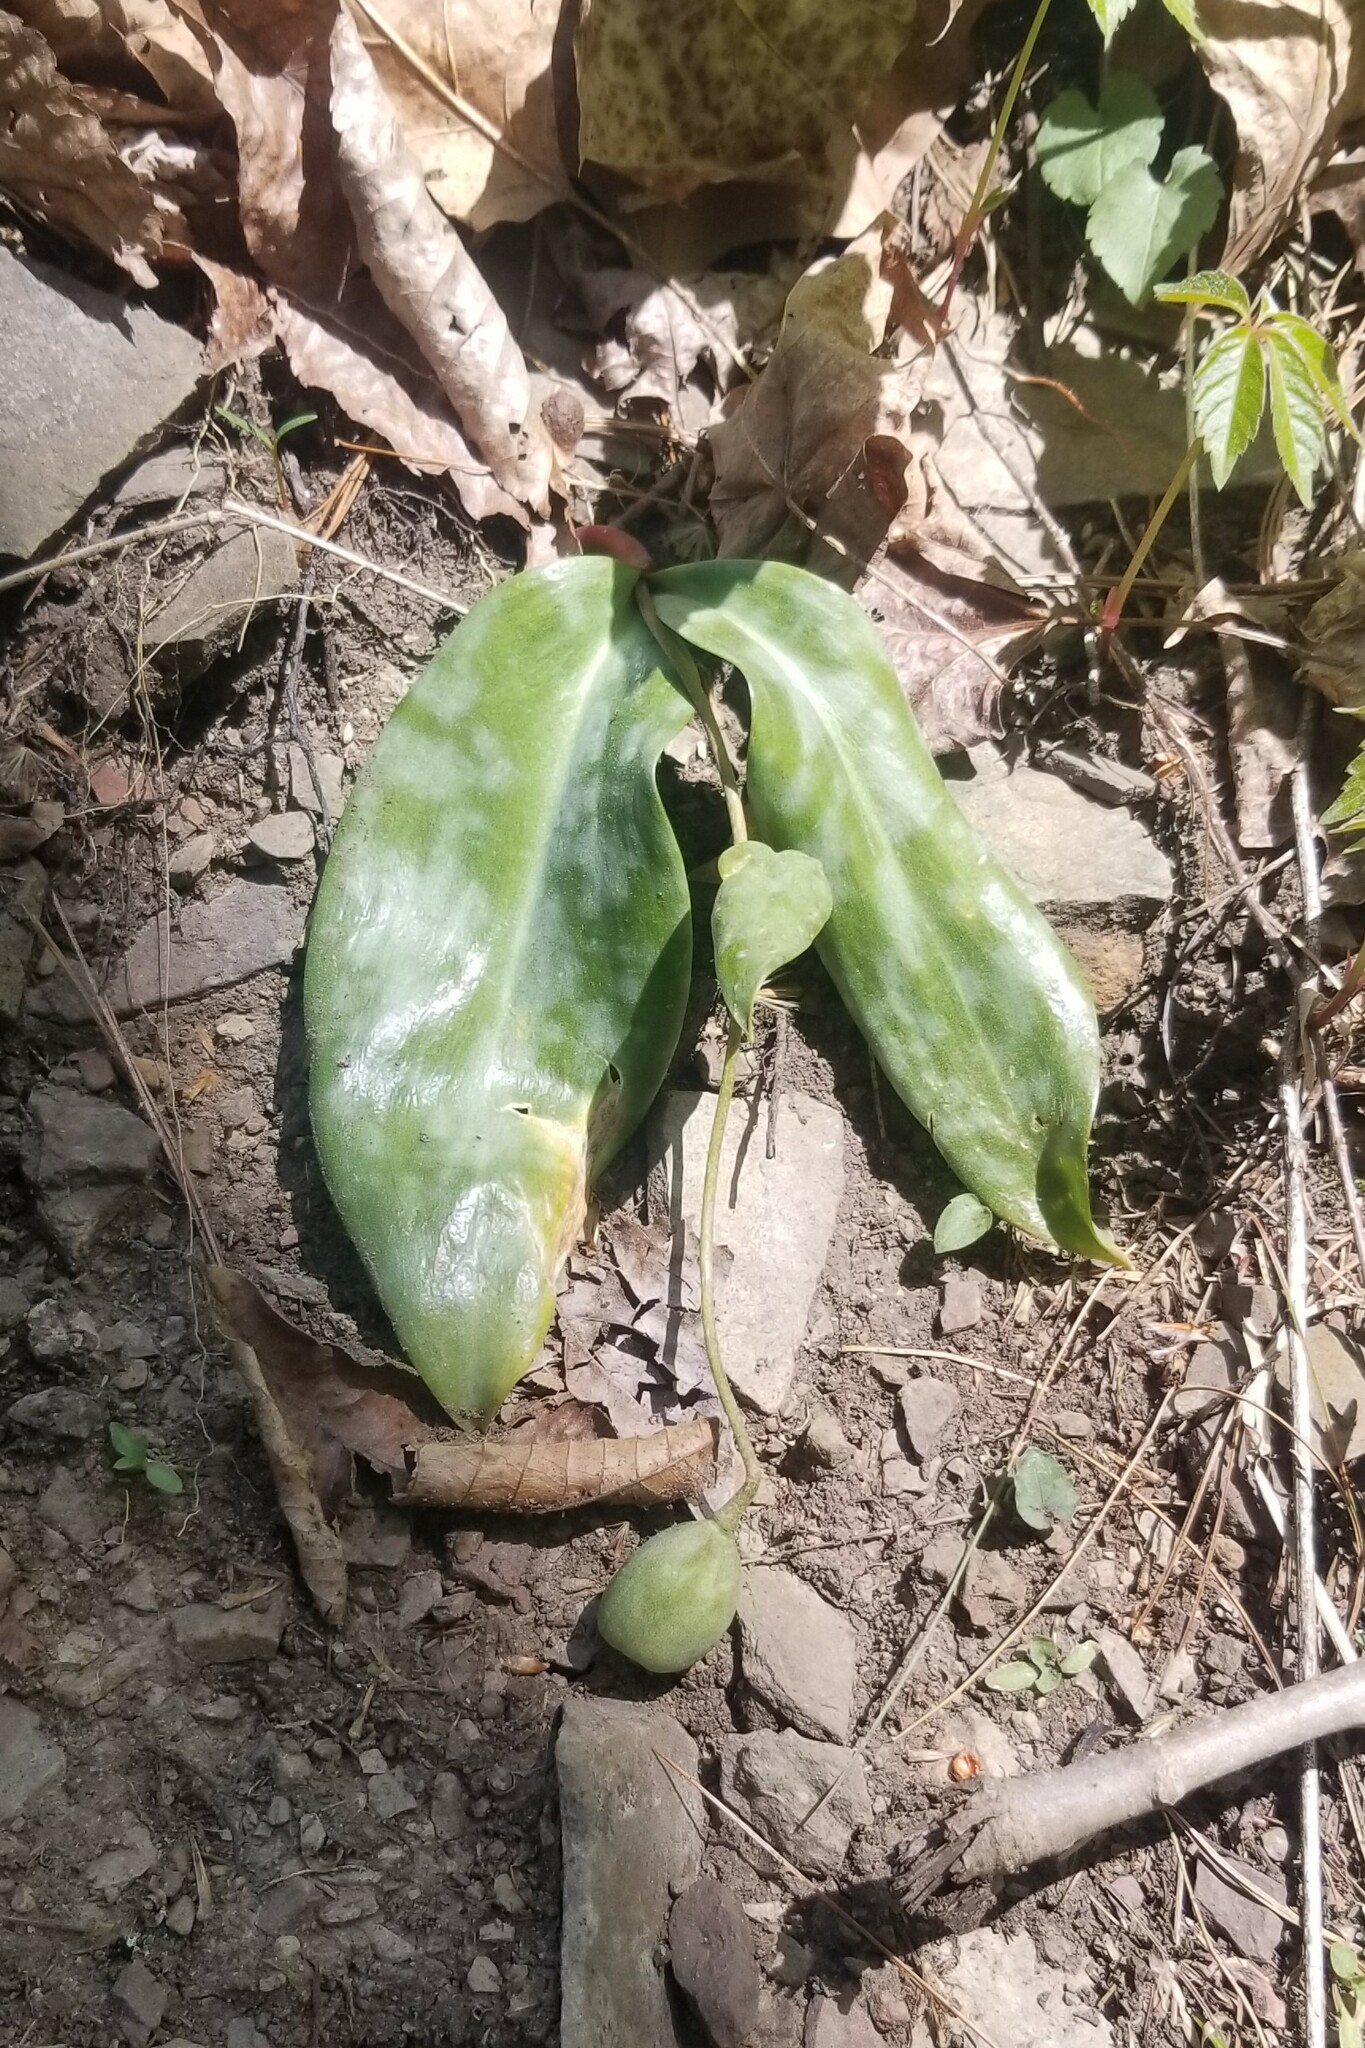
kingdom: Plantae
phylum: Tracheophyta
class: Liliopsida
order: Liliales
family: Liliaceae
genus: Erythronium
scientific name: Erythronium umbilicatum
